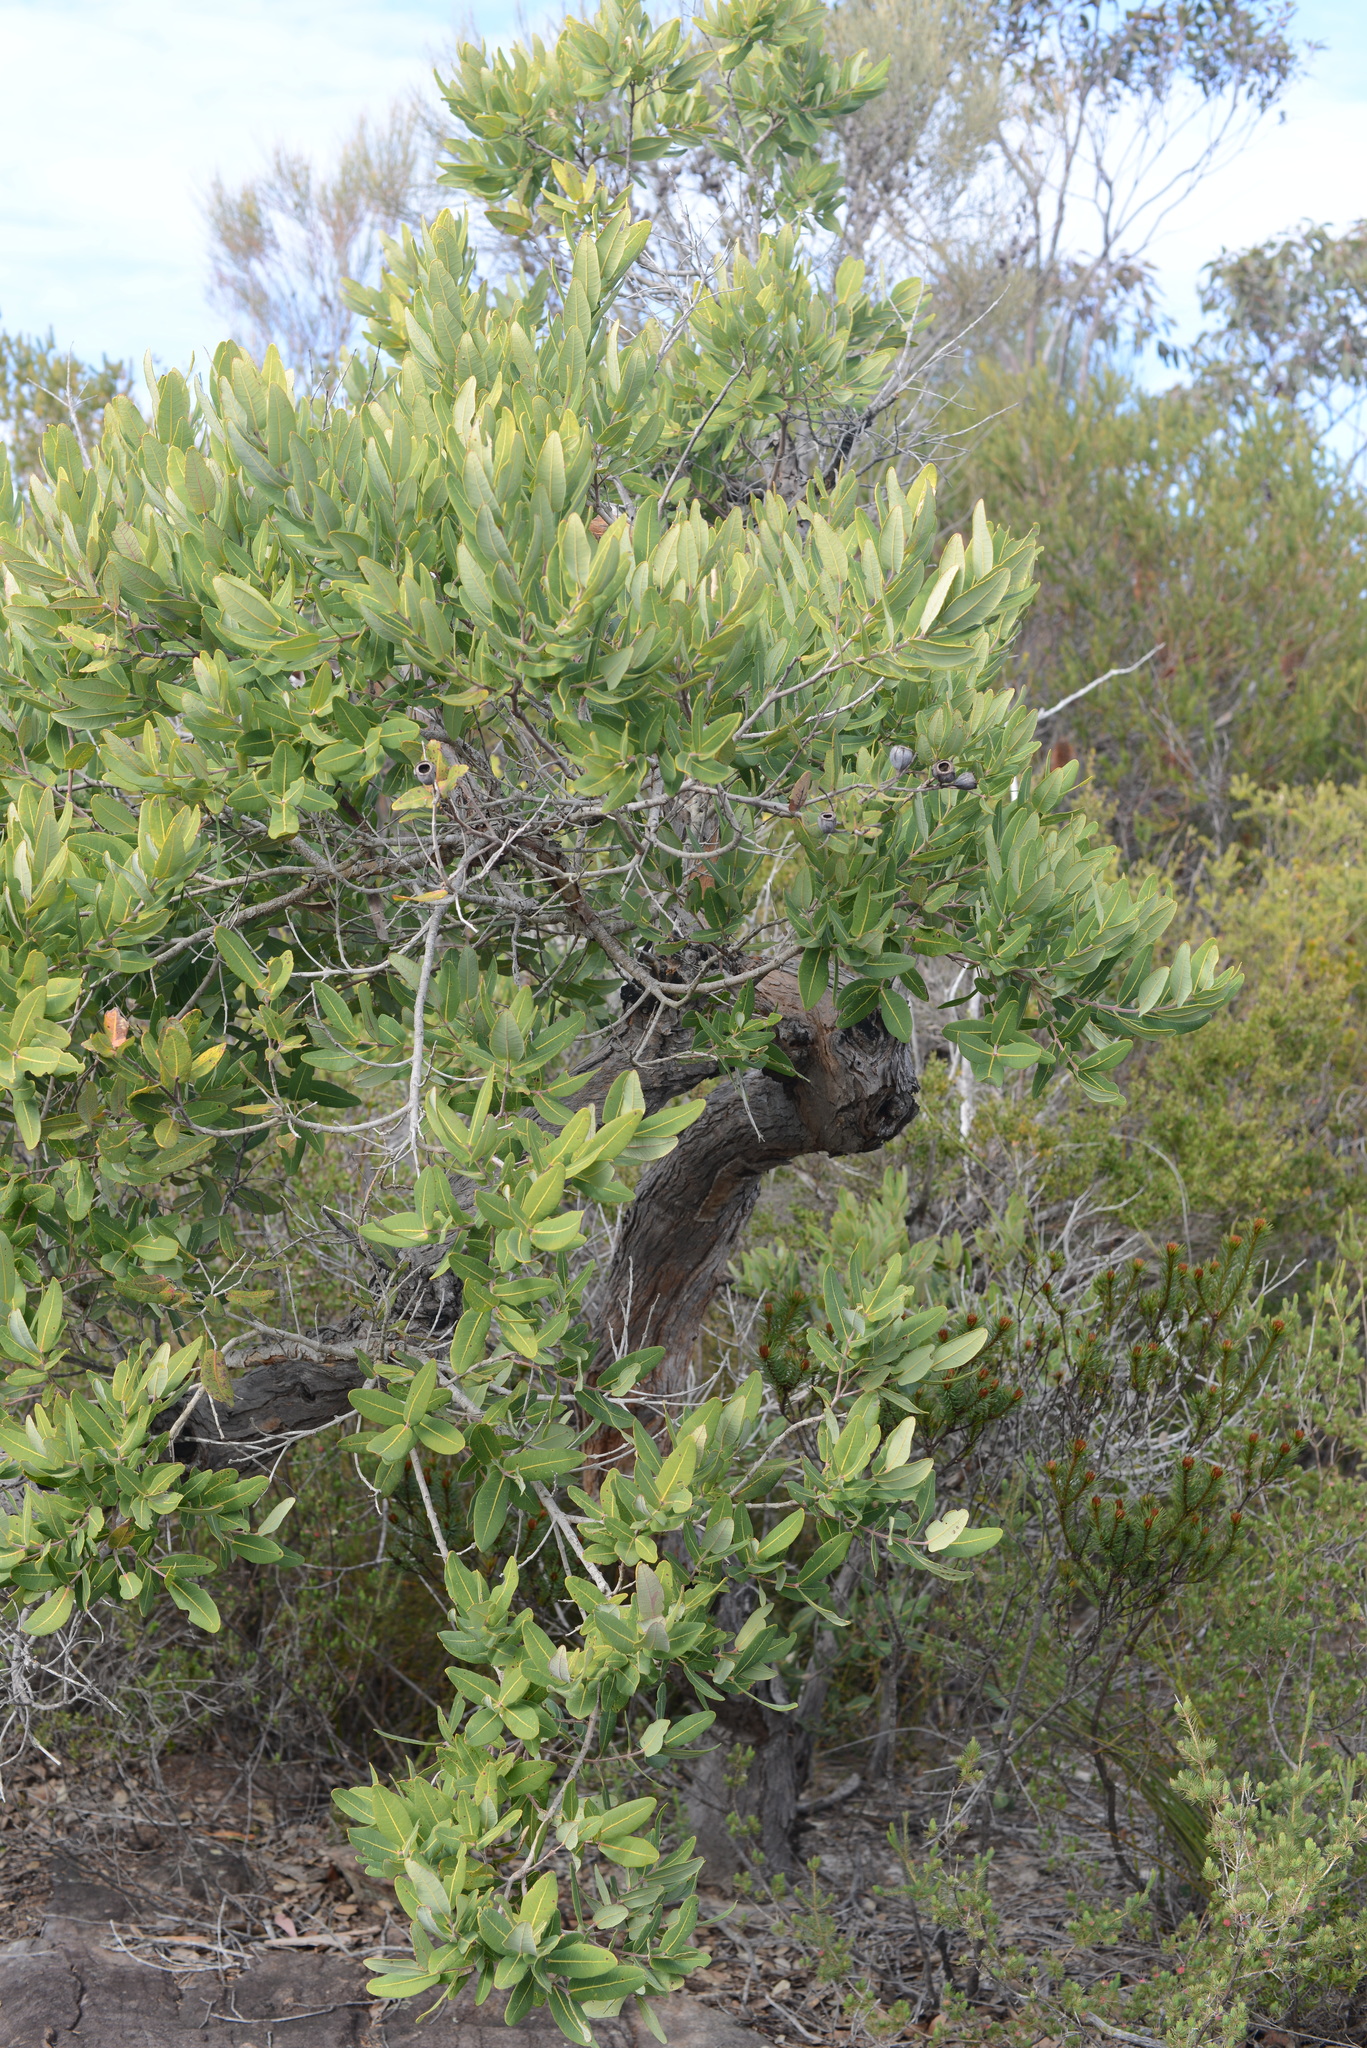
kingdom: Plantae
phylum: Tracheophyta
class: Magnoliopsida
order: Myrtales
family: Myrtaceae
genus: Angophora
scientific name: Angophora hispida
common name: Dwarf-apple
